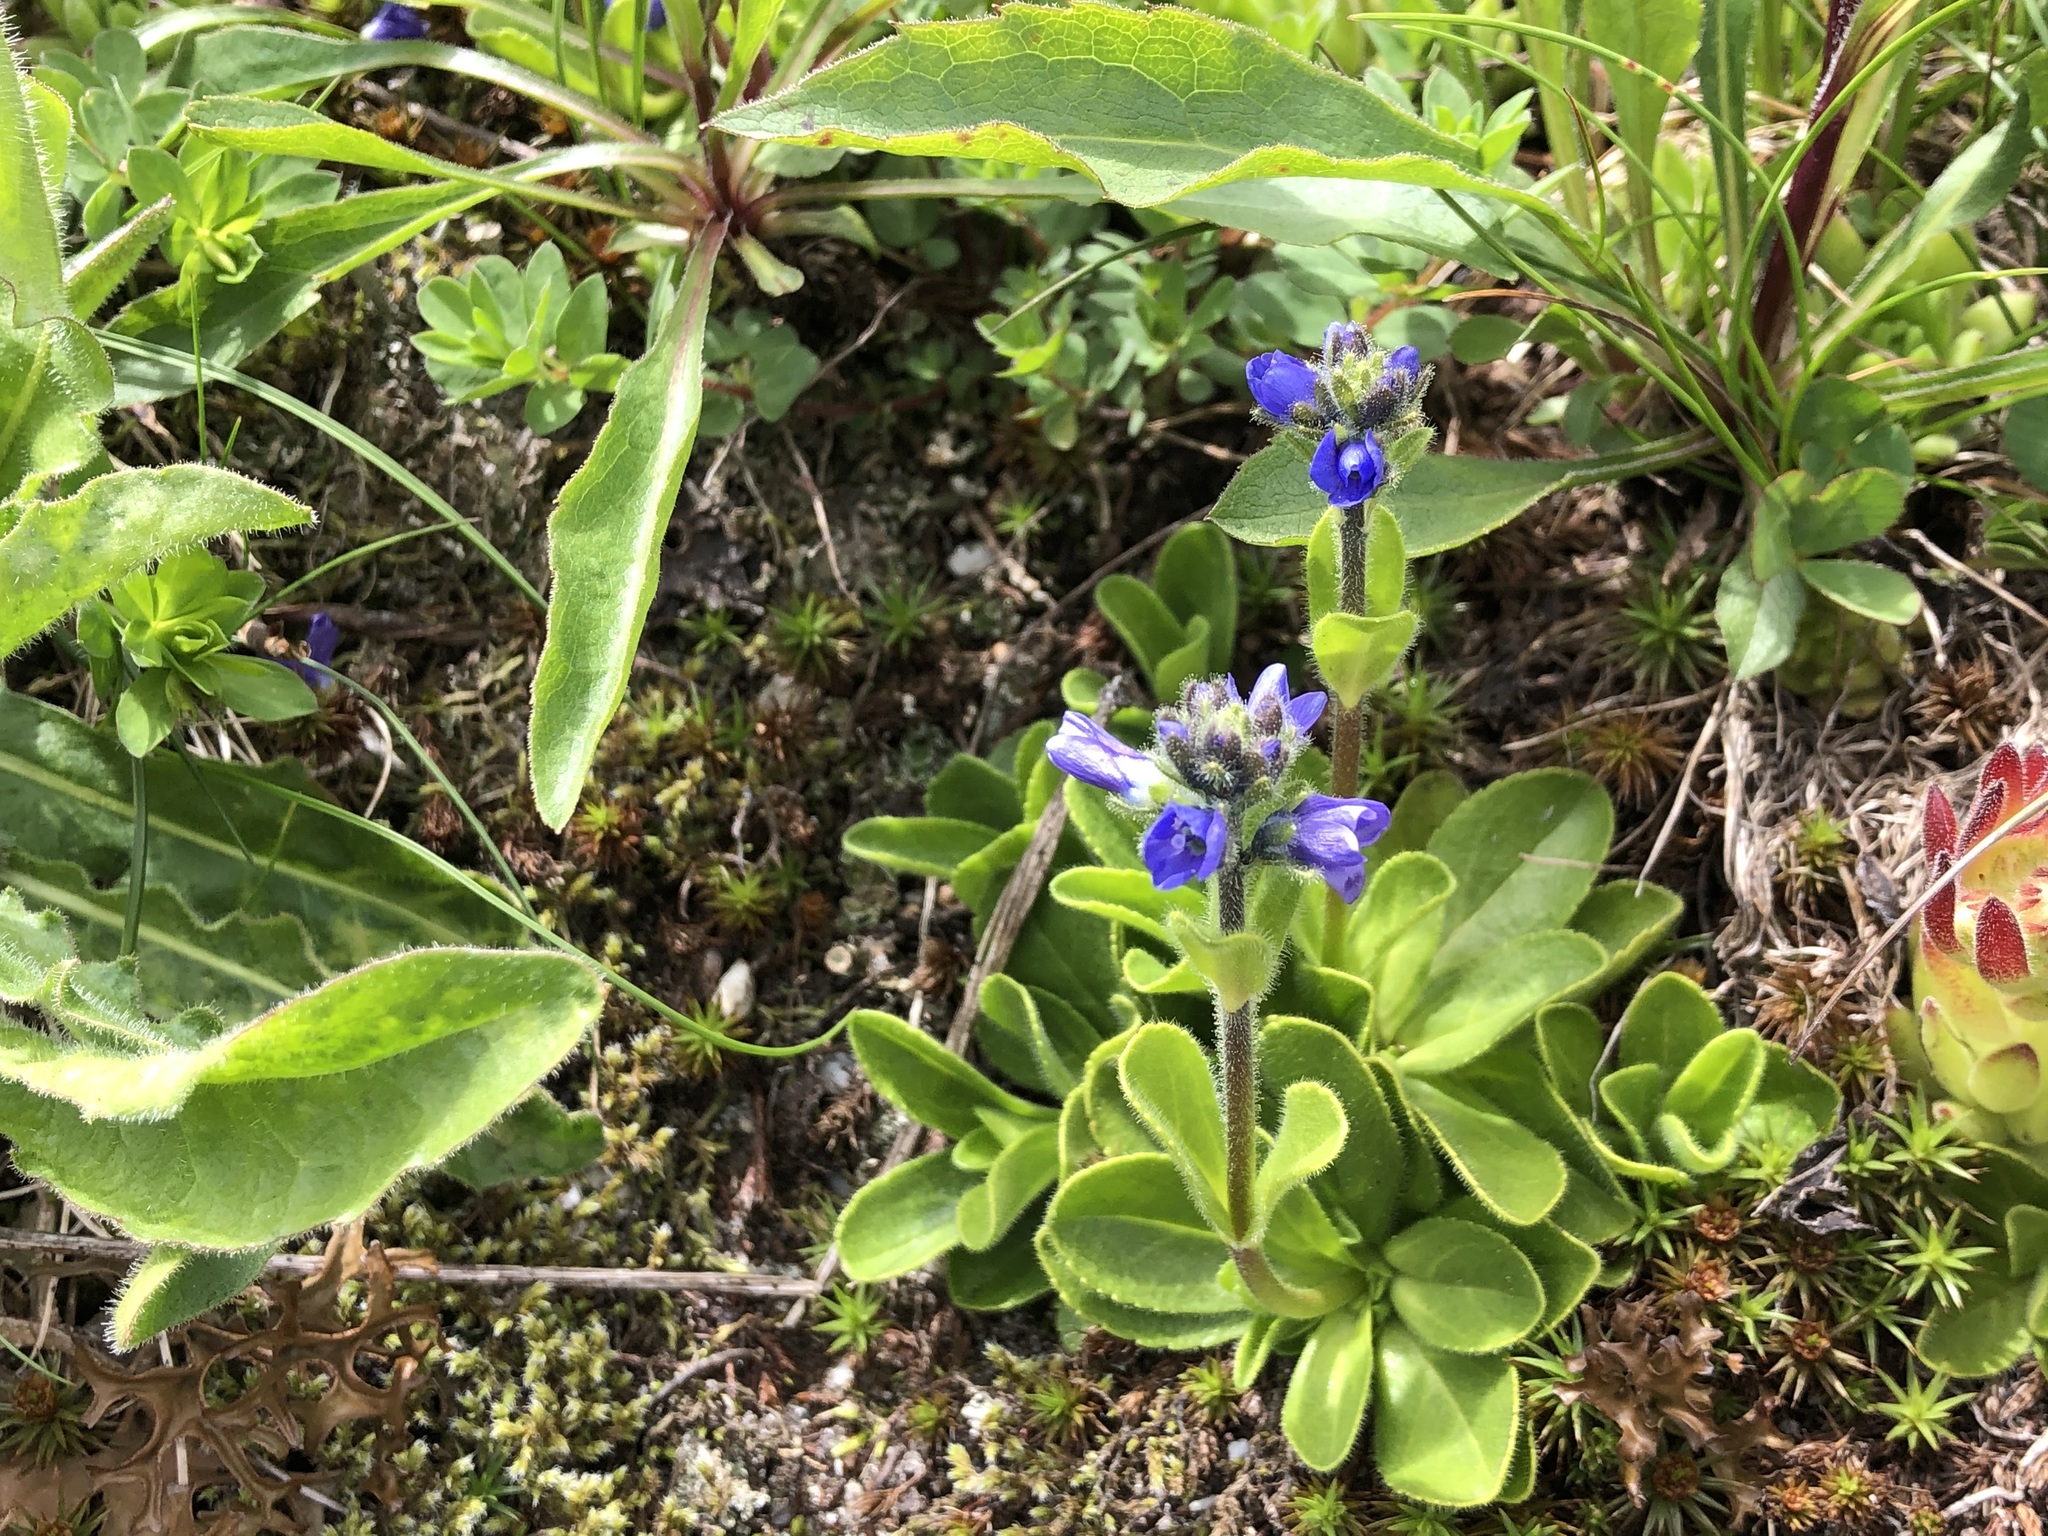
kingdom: Plantae
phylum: Tracheophyta
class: Magnoliopsida
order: Lamiales
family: Plantaginaceae
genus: Veronica
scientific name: Veronica bellidioides
